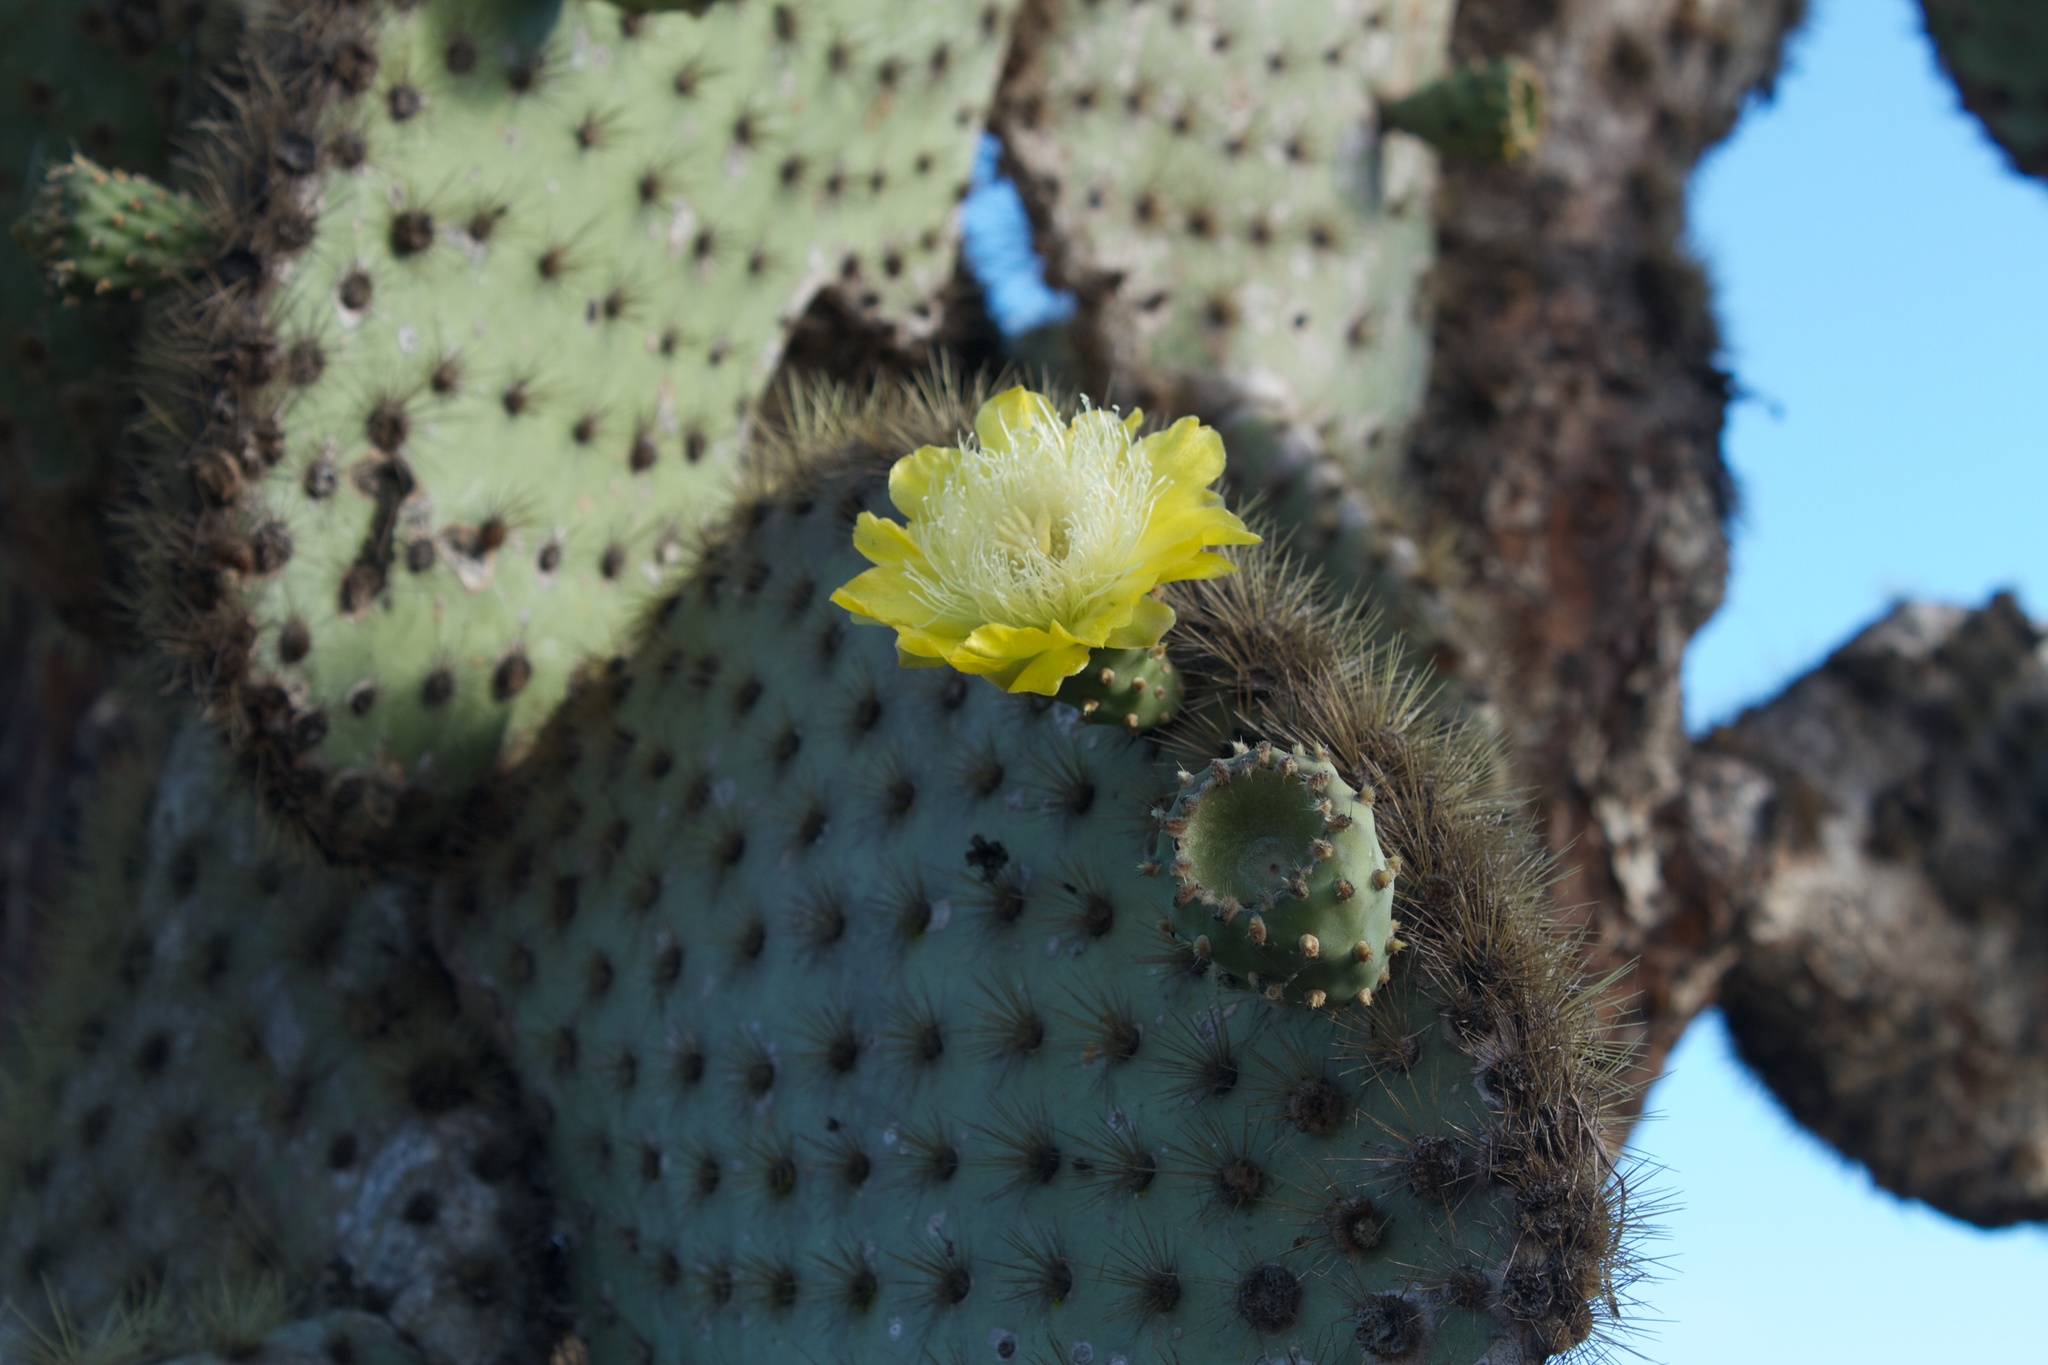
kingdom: Plantae
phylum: Tracheophyta
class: Magnoliopsida
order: Caryophyllales
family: Cactaceae
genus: Opuntia
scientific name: Opuntia galapageia
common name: Galápagos prickly pear
